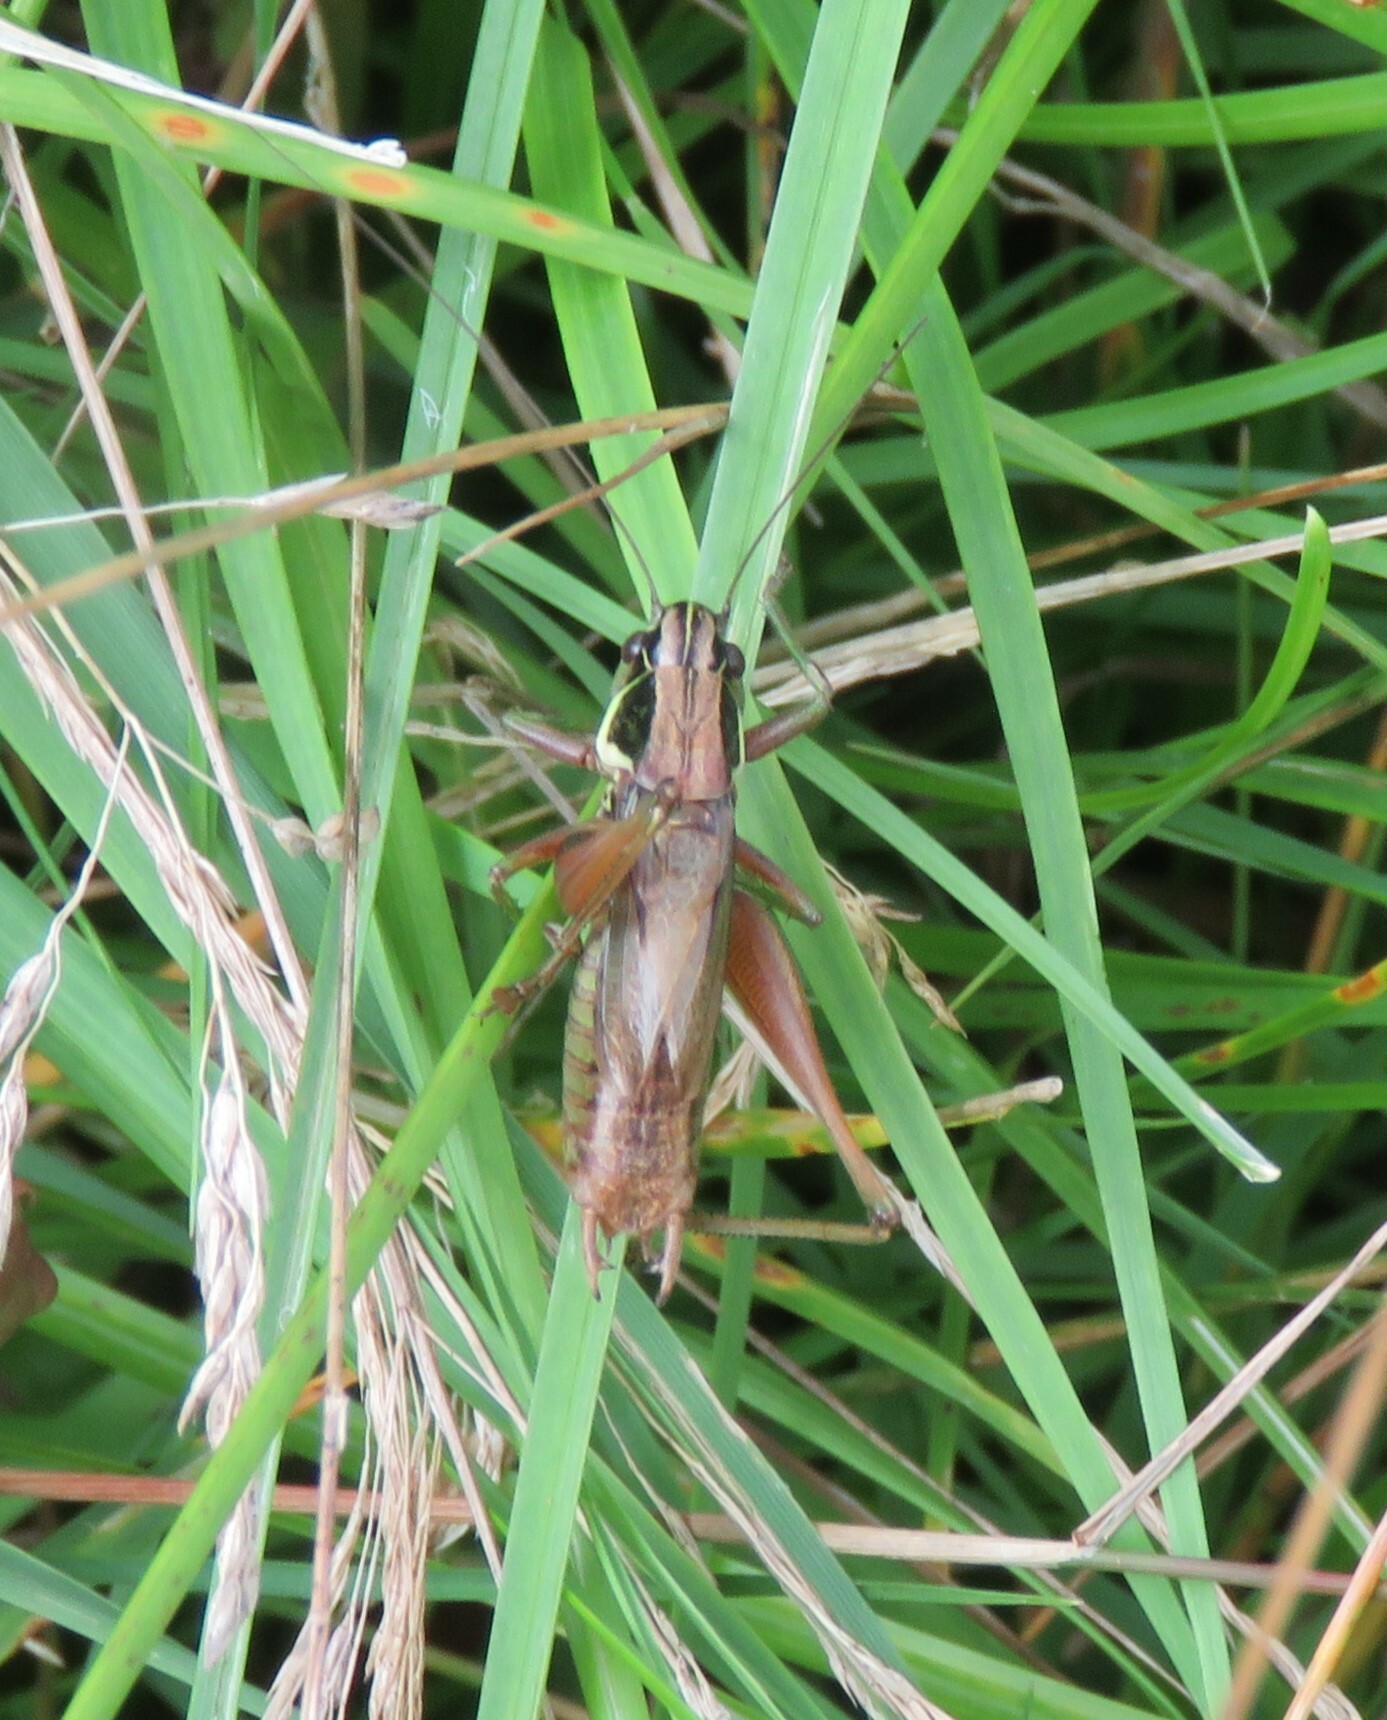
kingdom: Animalia
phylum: Arthropoda
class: Insecta
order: Orthoptera
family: Tettigoniidae
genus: Roeseliana
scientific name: Roeseliana roeselii
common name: Roesel's bush cricket
